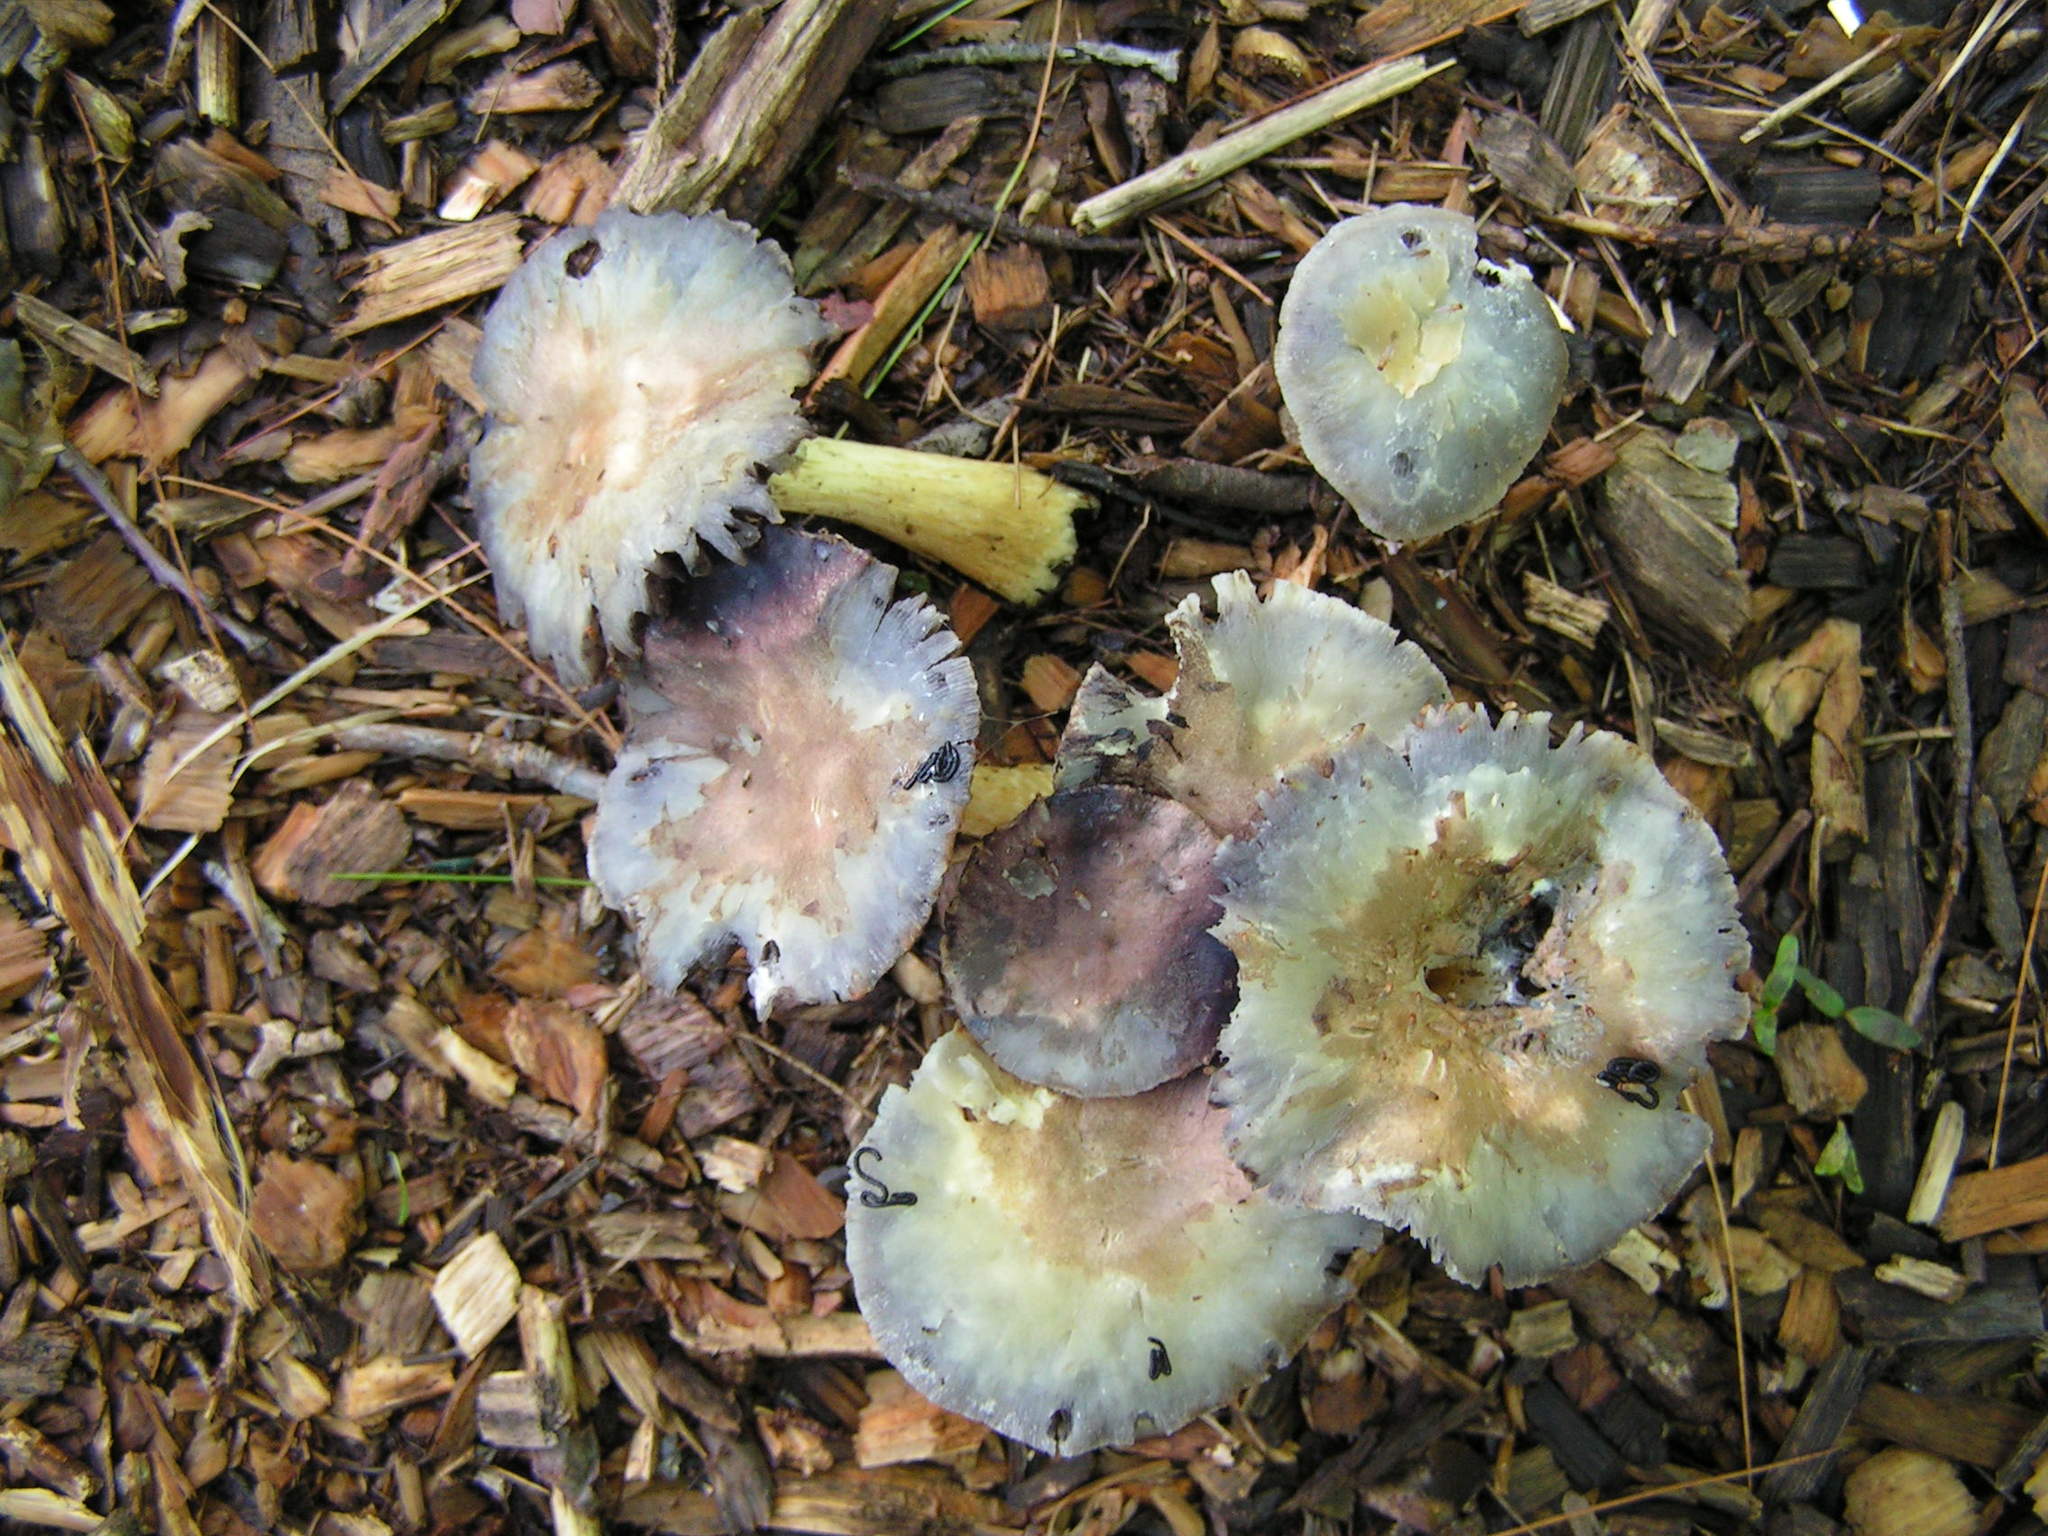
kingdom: Fungi
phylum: Basidiomycota
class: Agaricomycetes
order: Agaricales
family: Strophariaceae
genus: Stropharia
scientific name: Stropharia rugosoannulata
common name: Wine roundhead
